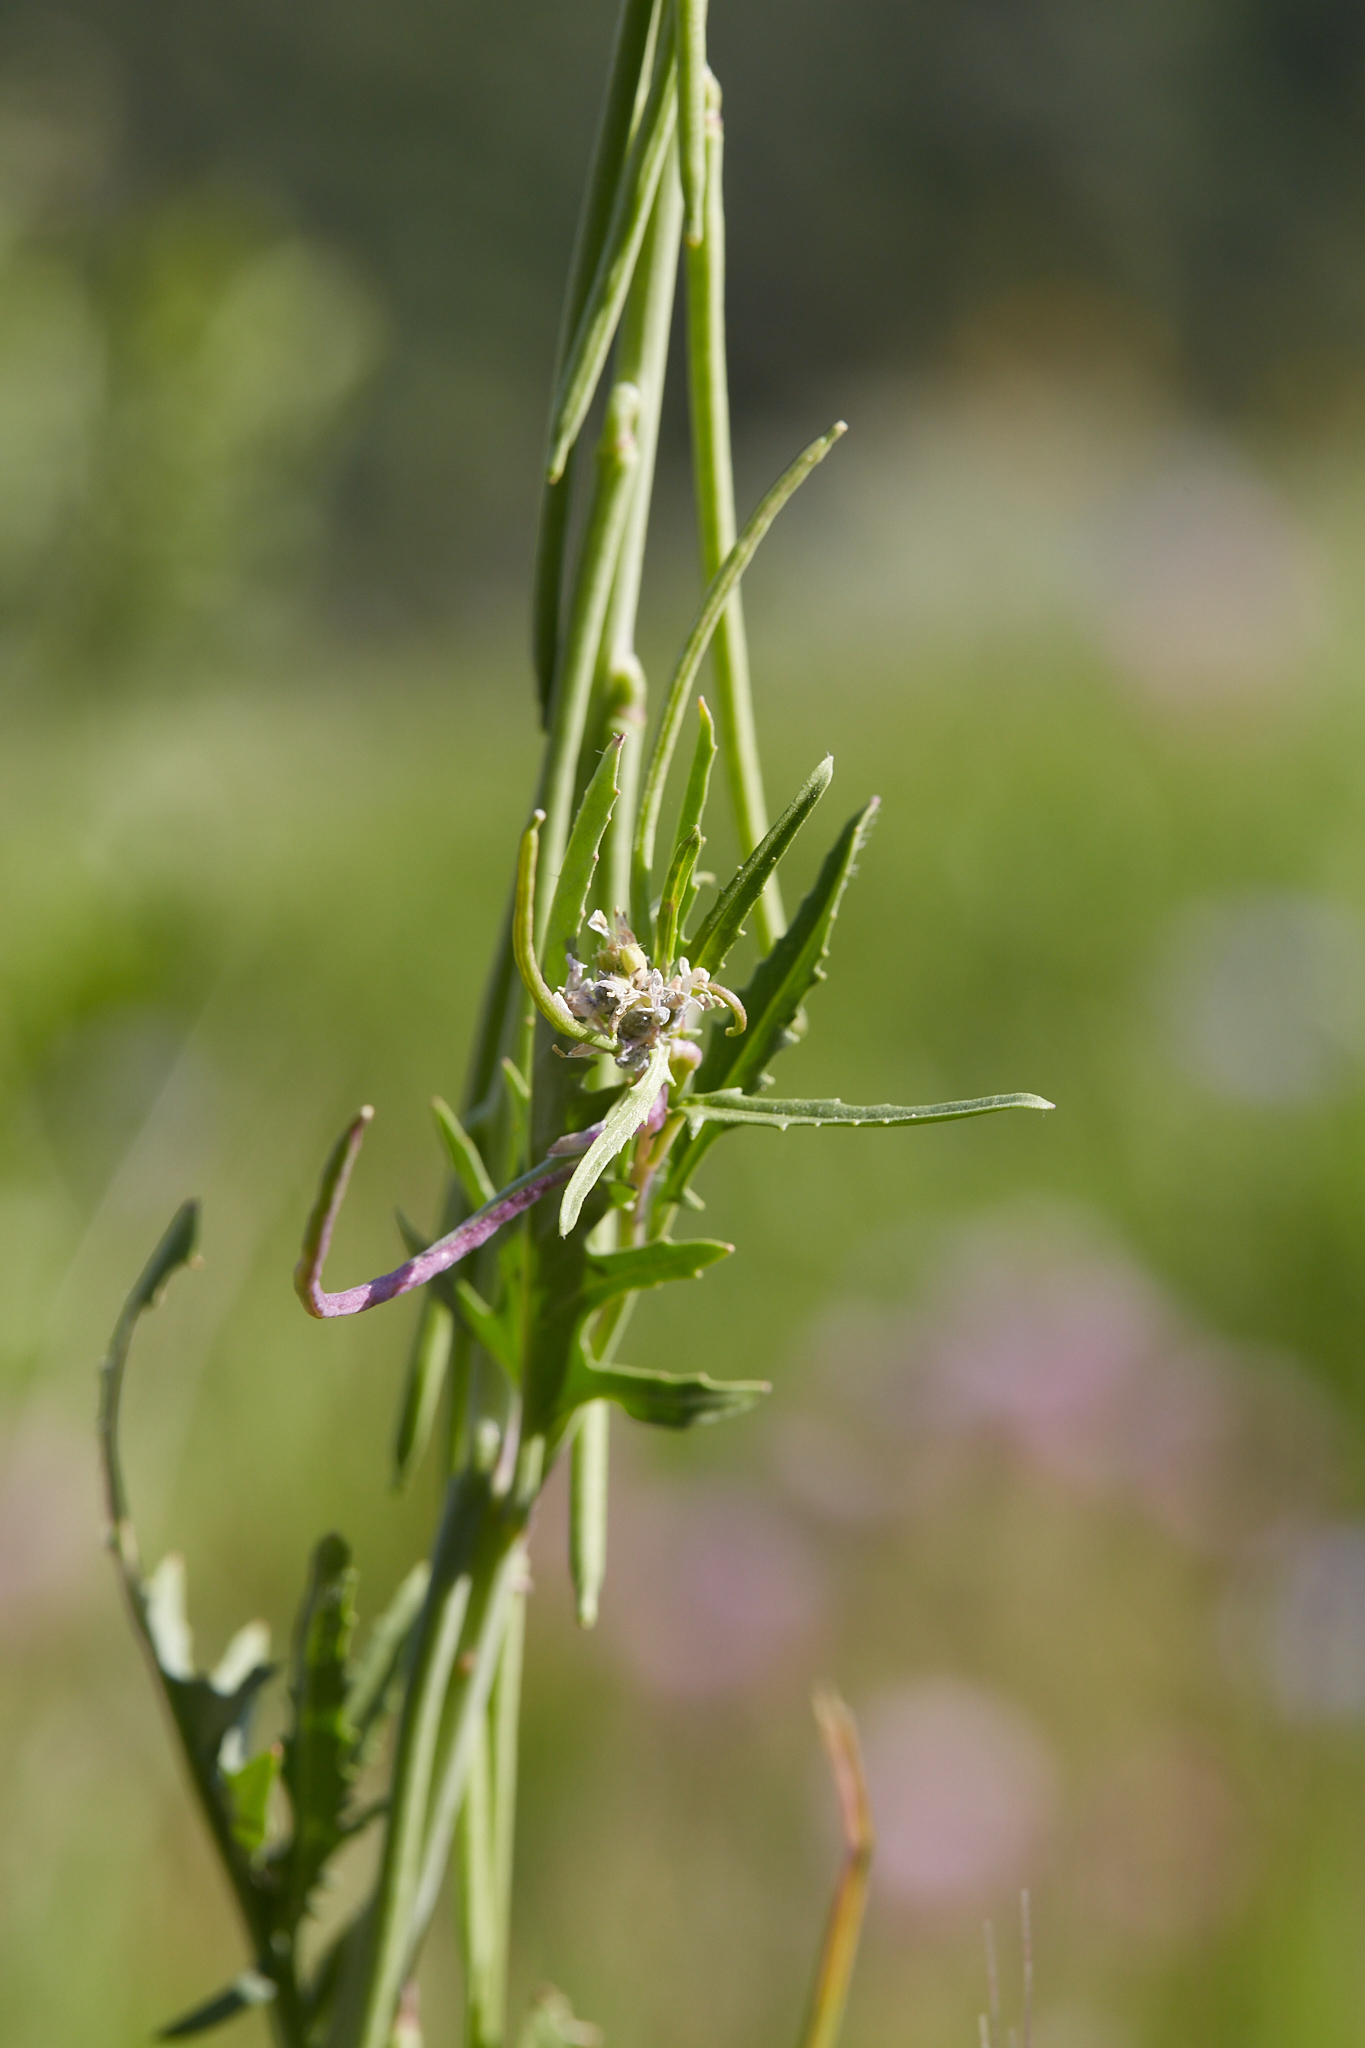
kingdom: Plantae
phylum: Tracheophyta
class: Magnoliopsida
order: Brassicales
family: Brassicaceae
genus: Streptanthus
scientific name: Streptanthus lasiophyllus
